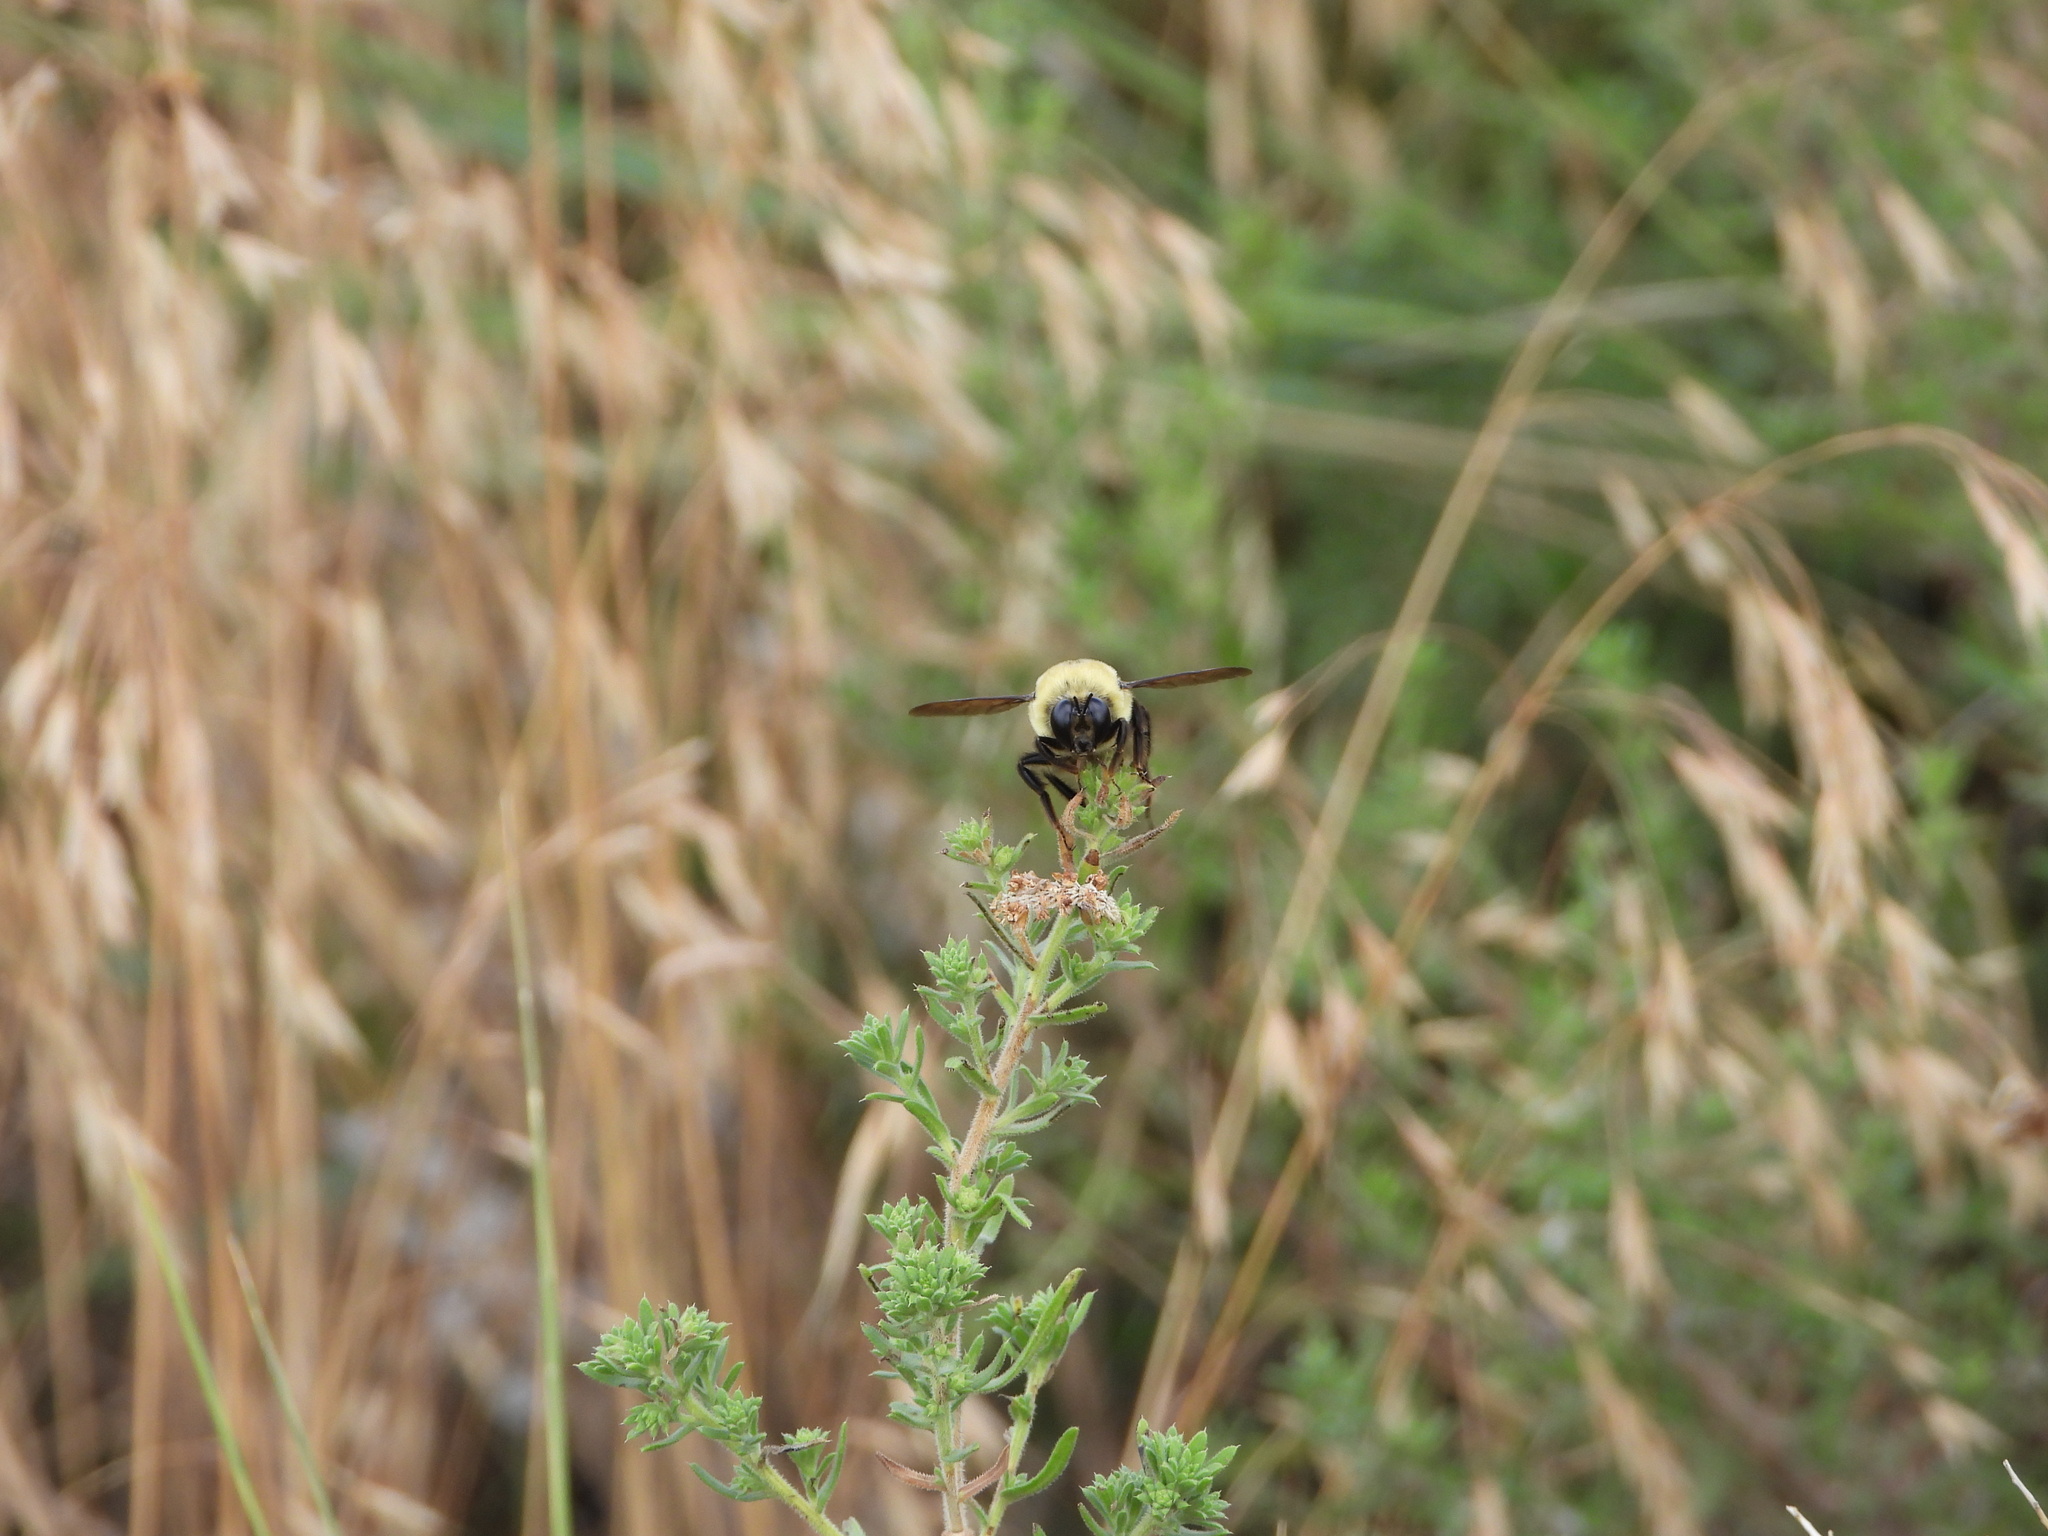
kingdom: Animalia
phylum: Arthropoda
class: Insecta
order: Hymenoptera
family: Apidae
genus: Bombus
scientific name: Bombus nevadensis
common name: Nevada bumble bee
